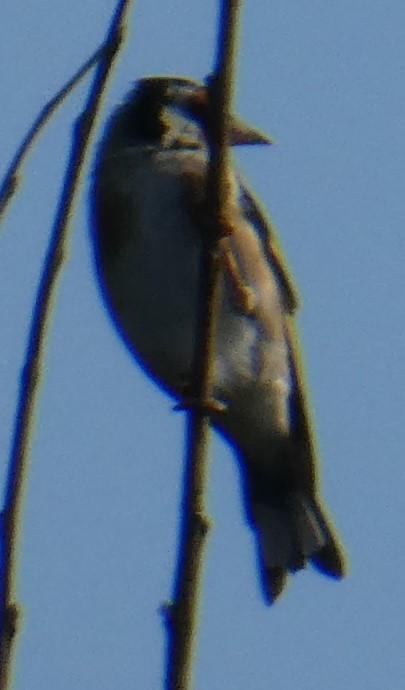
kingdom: Animalia
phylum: Chordata
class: Aves
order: Passeriformes
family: Fringillidae
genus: Carduelis
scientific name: Carduelis carduelis
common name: European goldfinch
